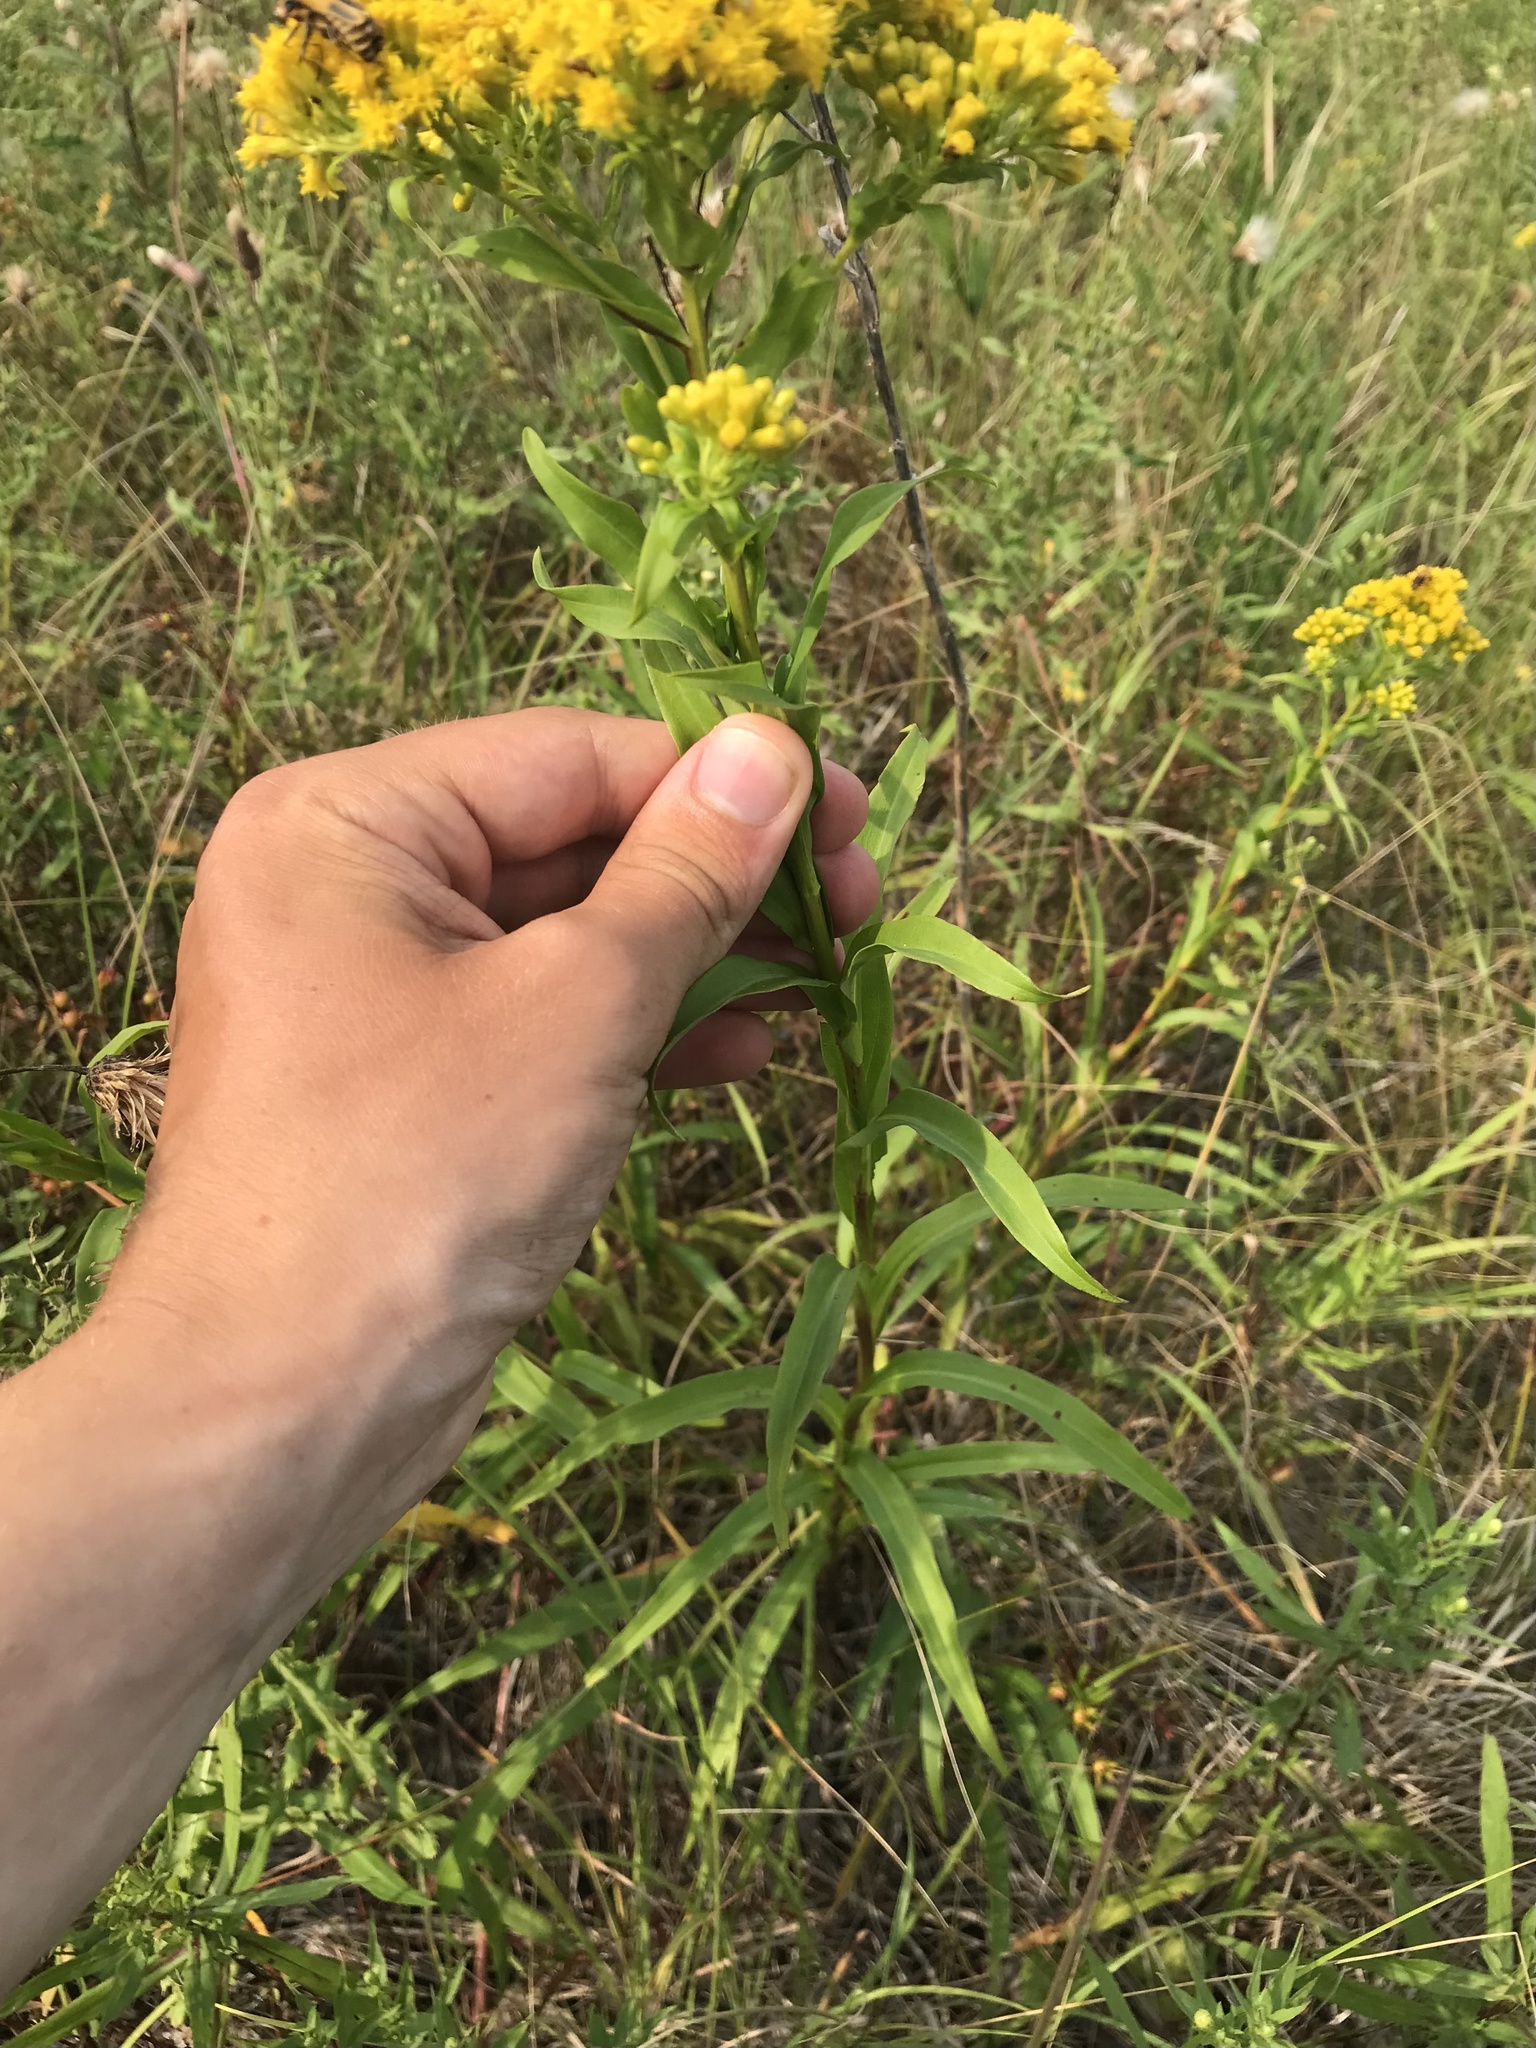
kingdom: Plantae
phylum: Tracheophyta
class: Magnoliopsida
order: Asterales
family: Asteraceae
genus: Solidago
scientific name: Solidago riddellii
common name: Riddell's goldenrod
